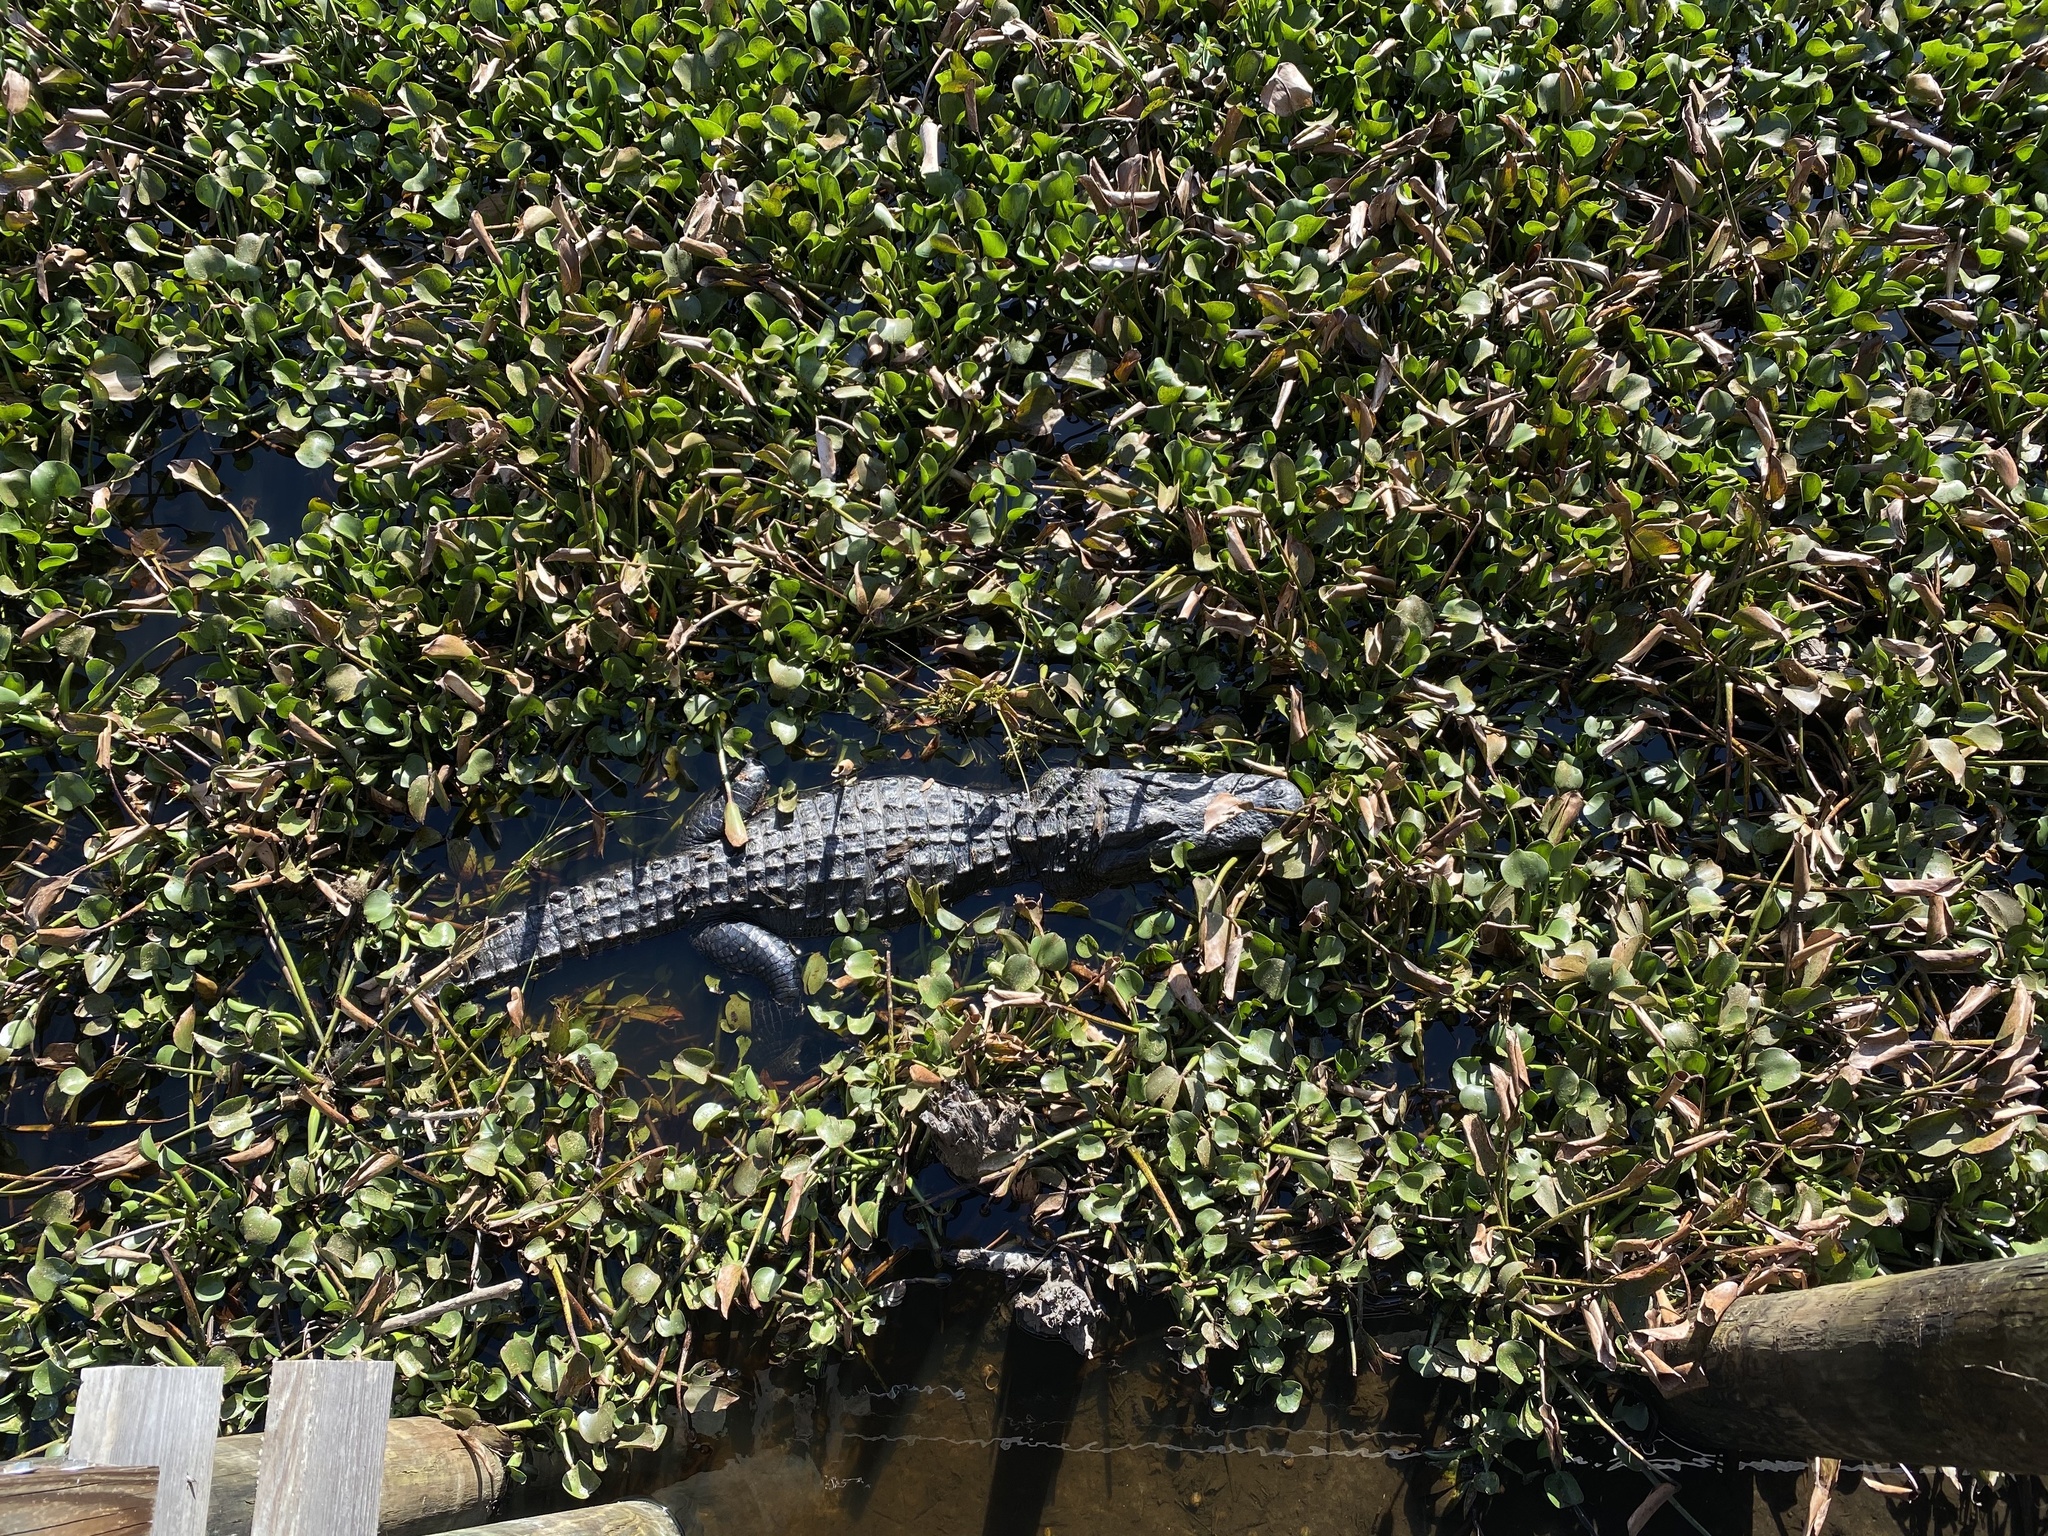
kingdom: Animalia
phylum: Chordata
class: Crocodylia
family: Alligatoridae
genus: Alligator
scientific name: Alligator mississippiensis
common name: American alligator
